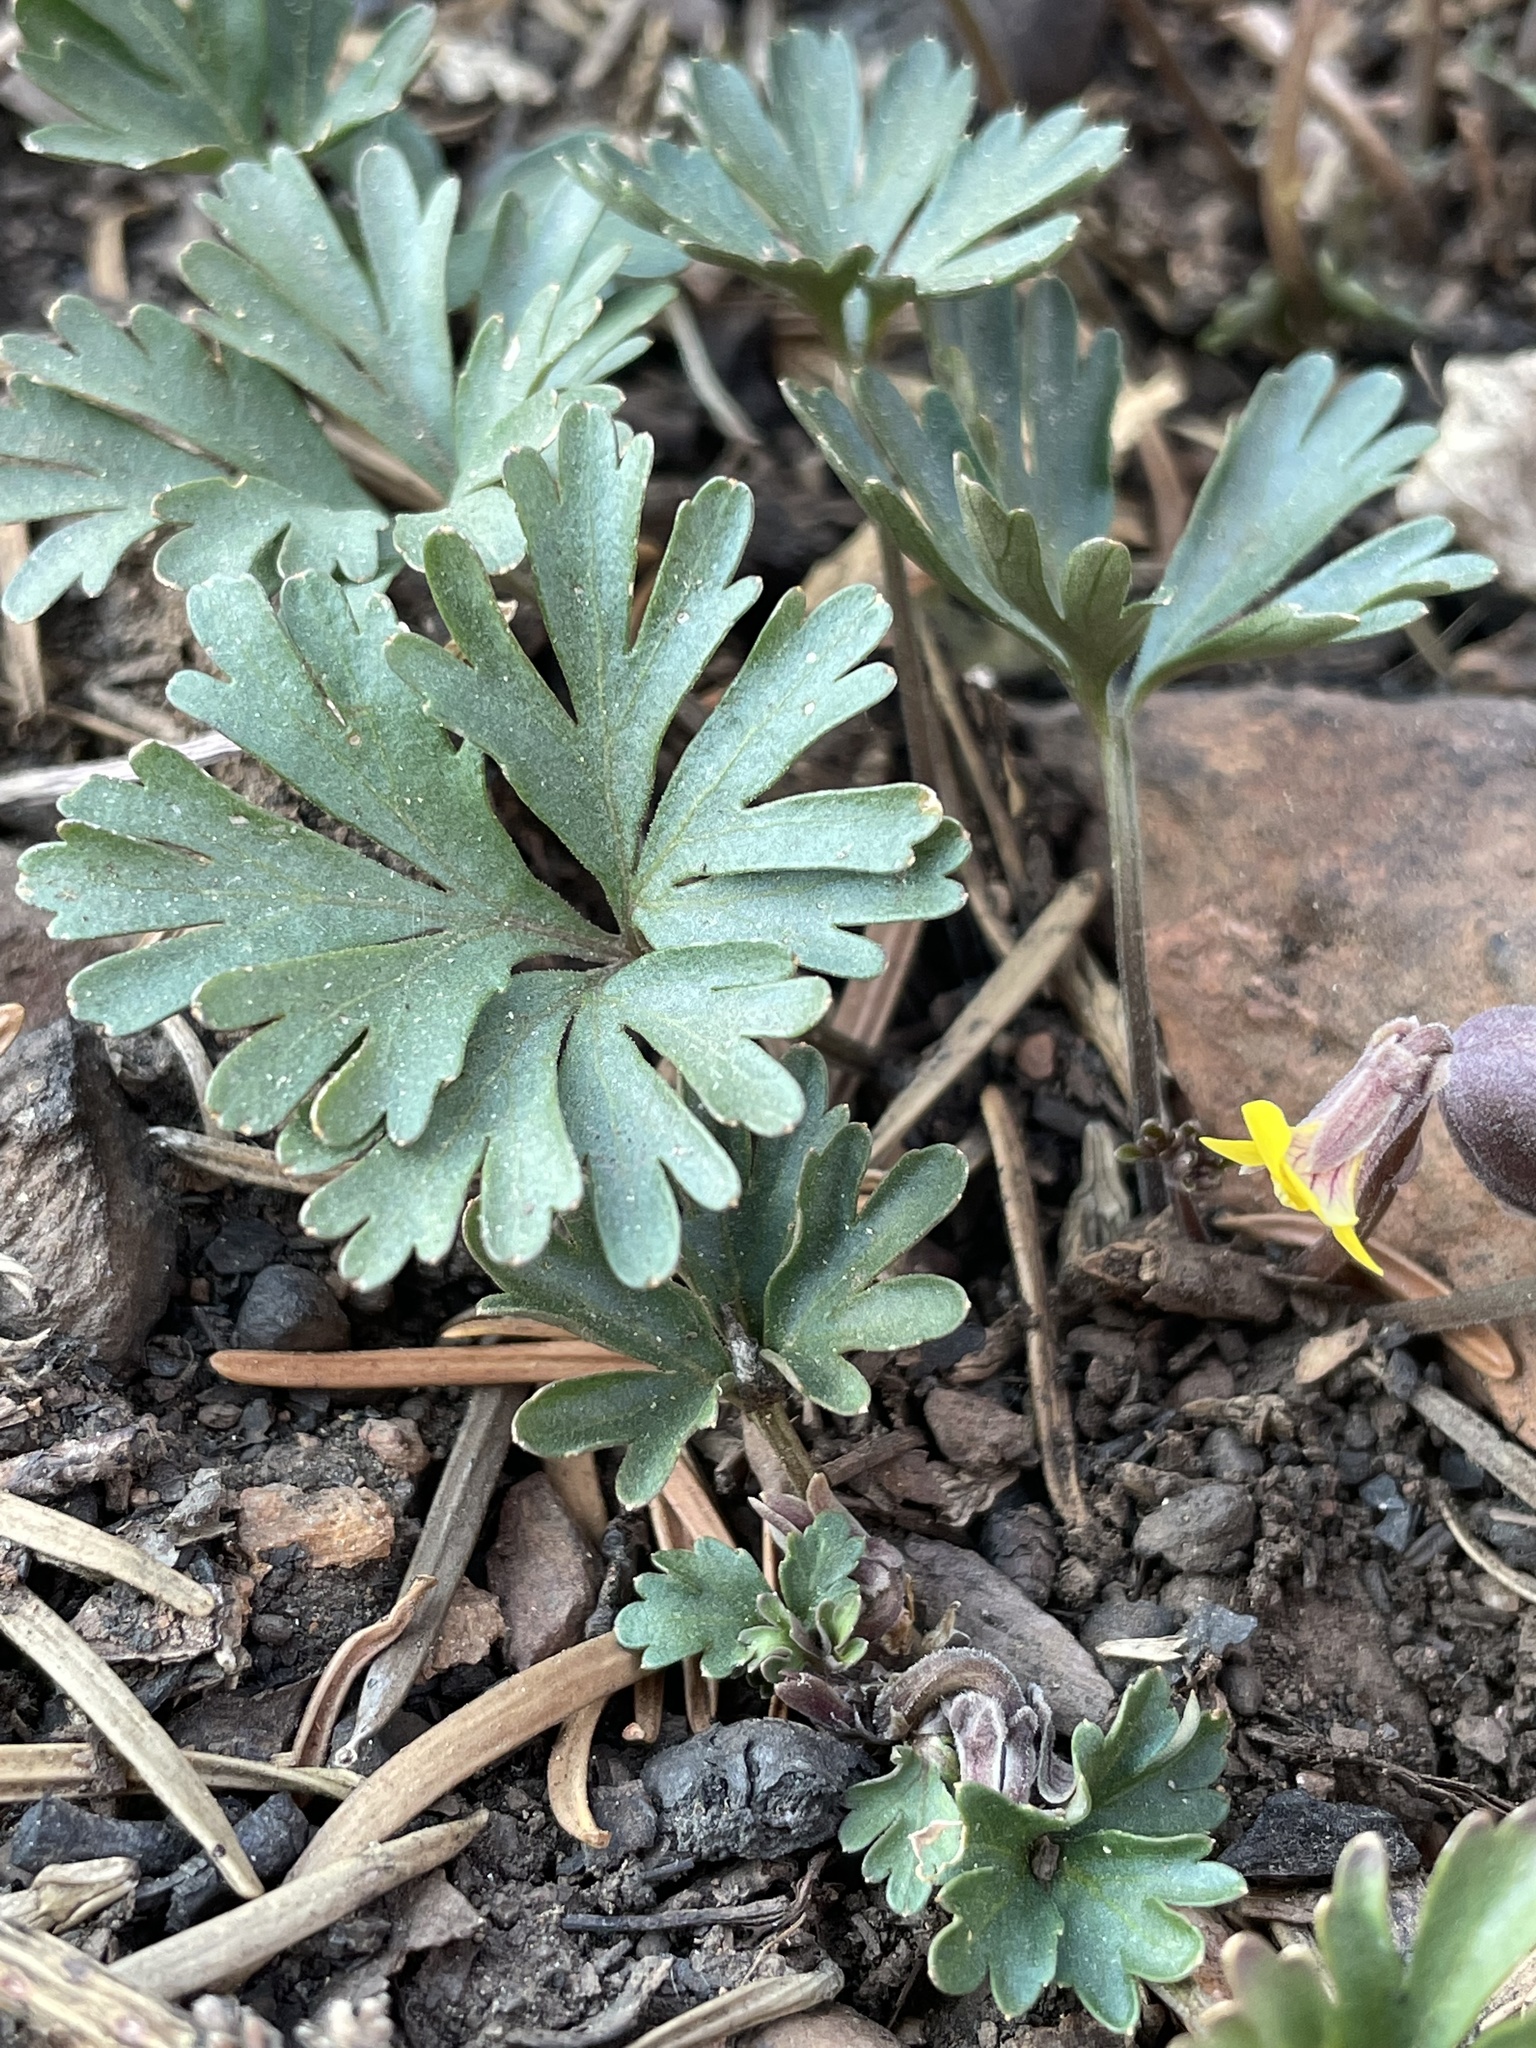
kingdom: Plantae
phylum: Tracheophyta
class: Magnoliopsida
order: Malpighiales
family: Violaceae
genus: Viola
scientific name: Viola sheltonii
